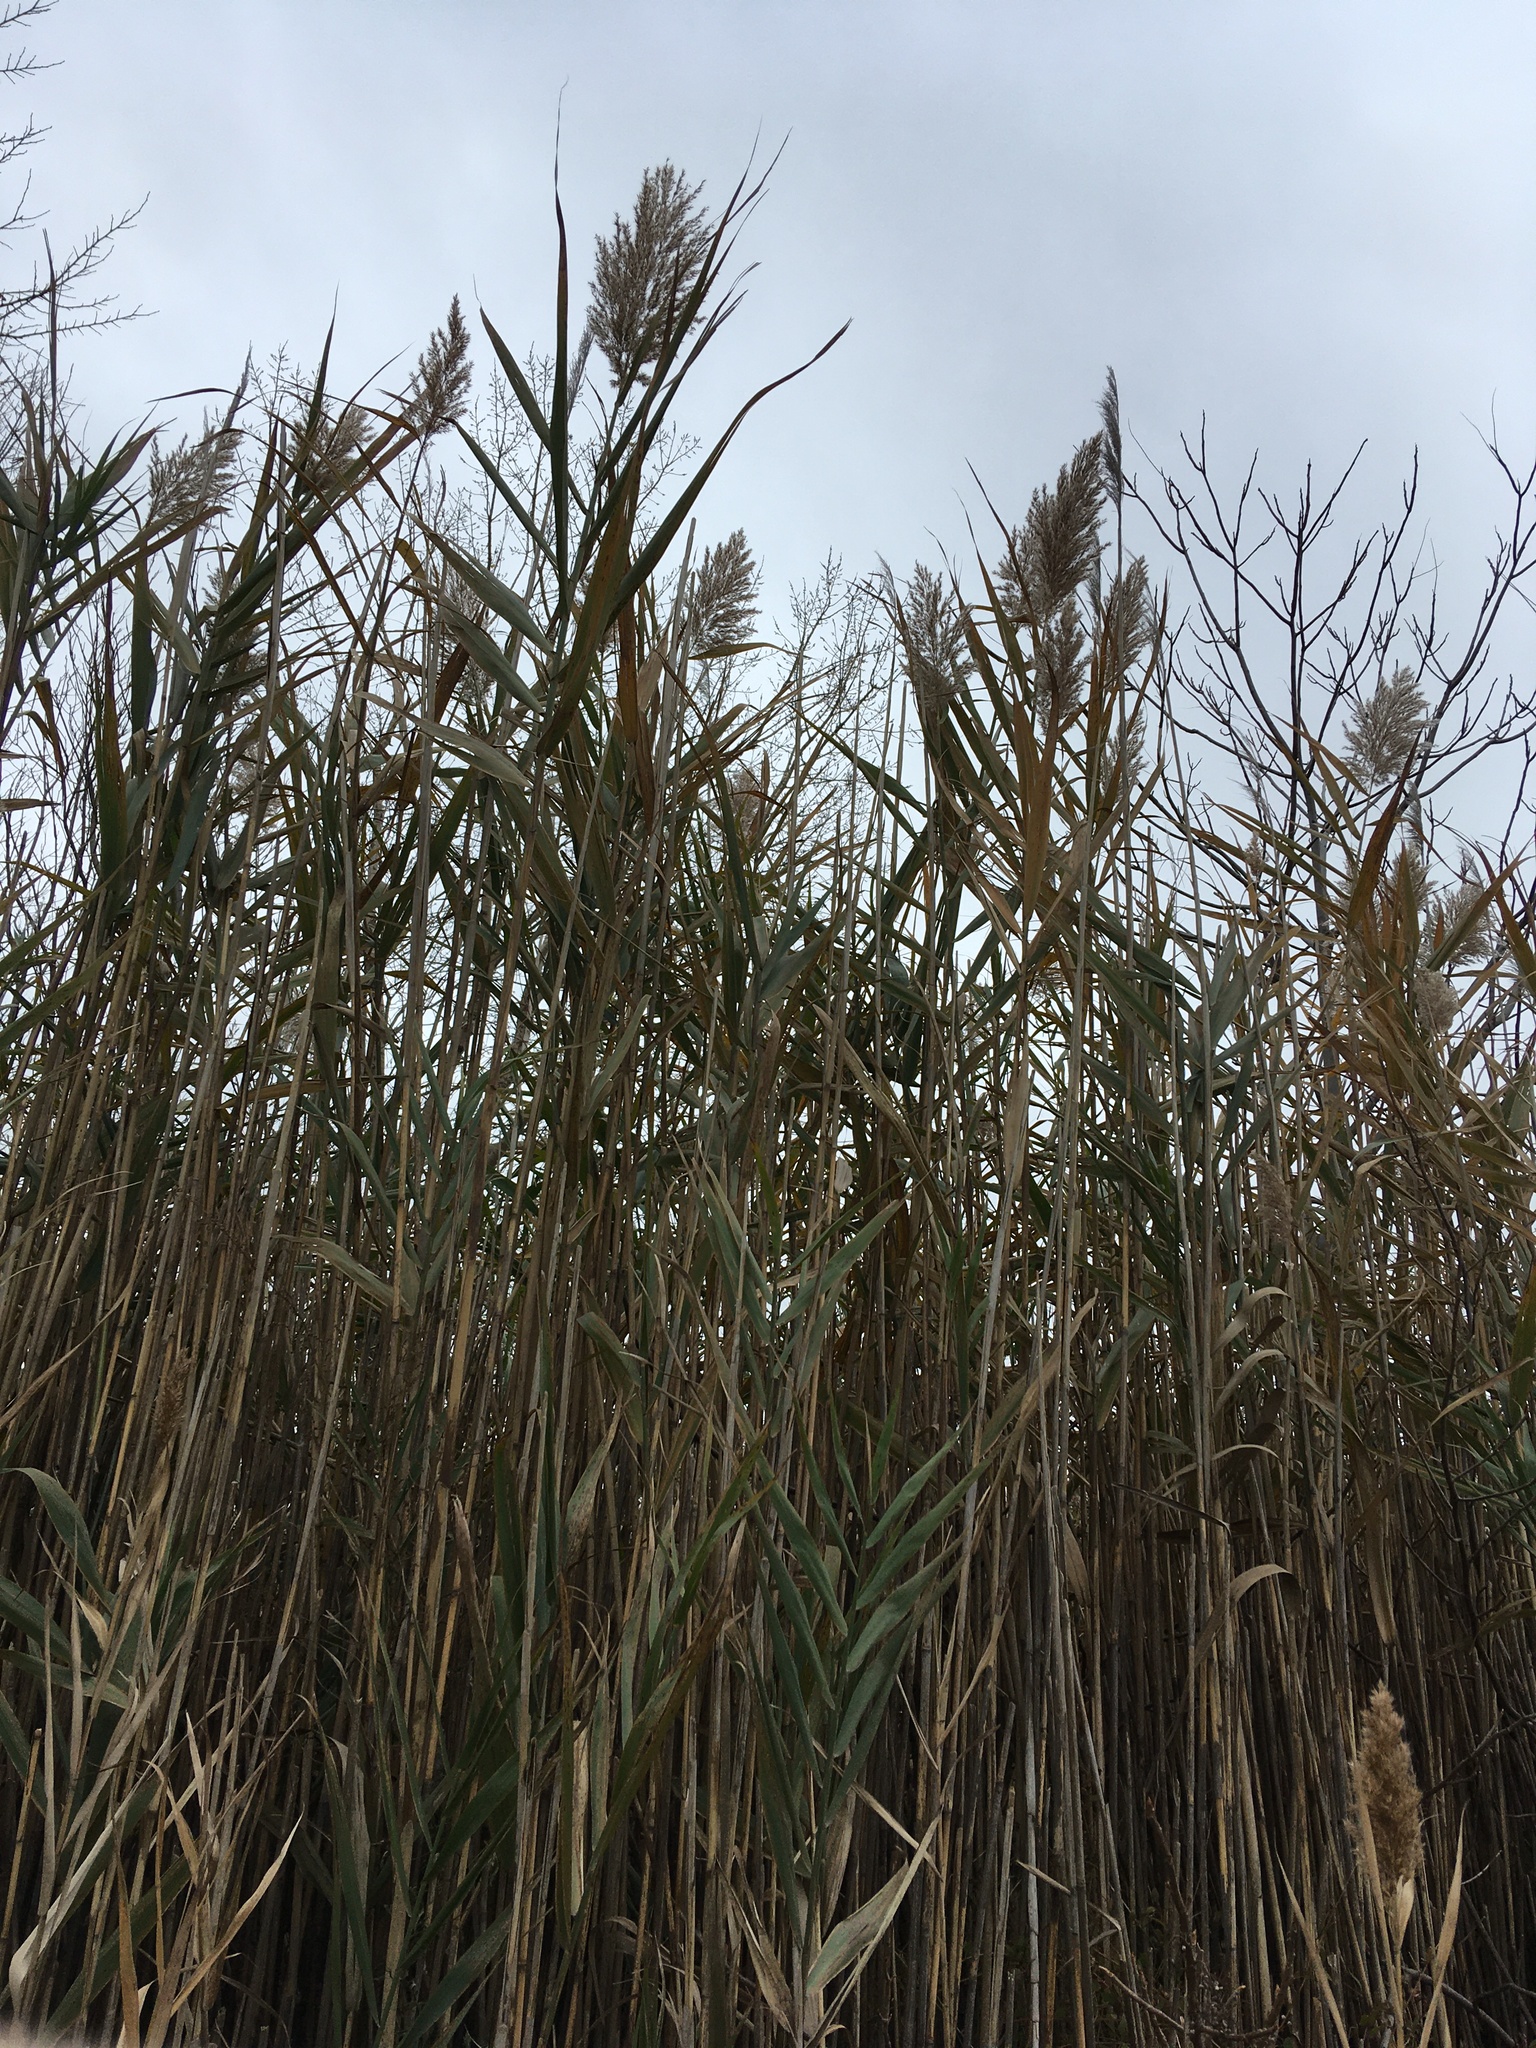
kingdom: Plantae
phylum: Tracheophyta
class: Liliopsida
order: Poales
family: Poaceae
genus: Phragmites
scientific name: Phragmites australis
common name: Common reed
